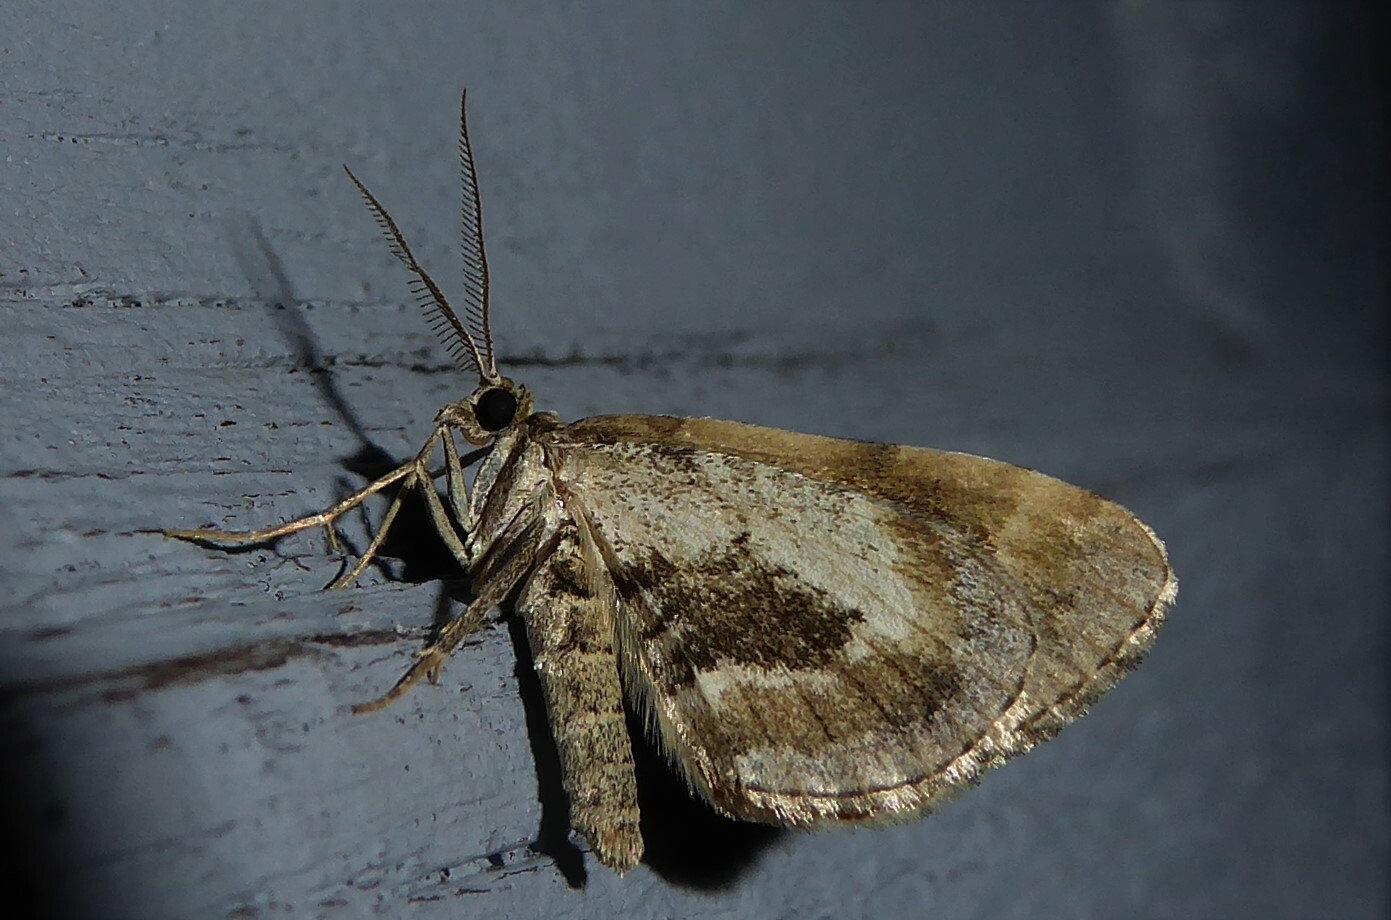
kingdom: Animalia
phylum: Arthropoda
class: Insecta
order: Lepidoptera
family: Geometridae
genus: Asaphodes
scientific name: Asaphodes aegrota
